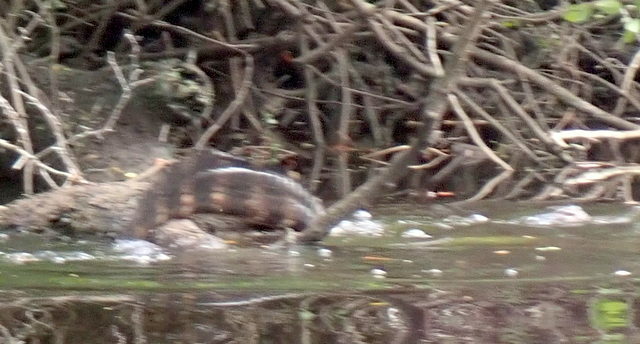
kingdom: Animalia
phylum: Chordata
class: Crocodylia
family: Alligatoridae
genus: Alligator
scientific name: Alligator mississippiensis
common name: American alligator
